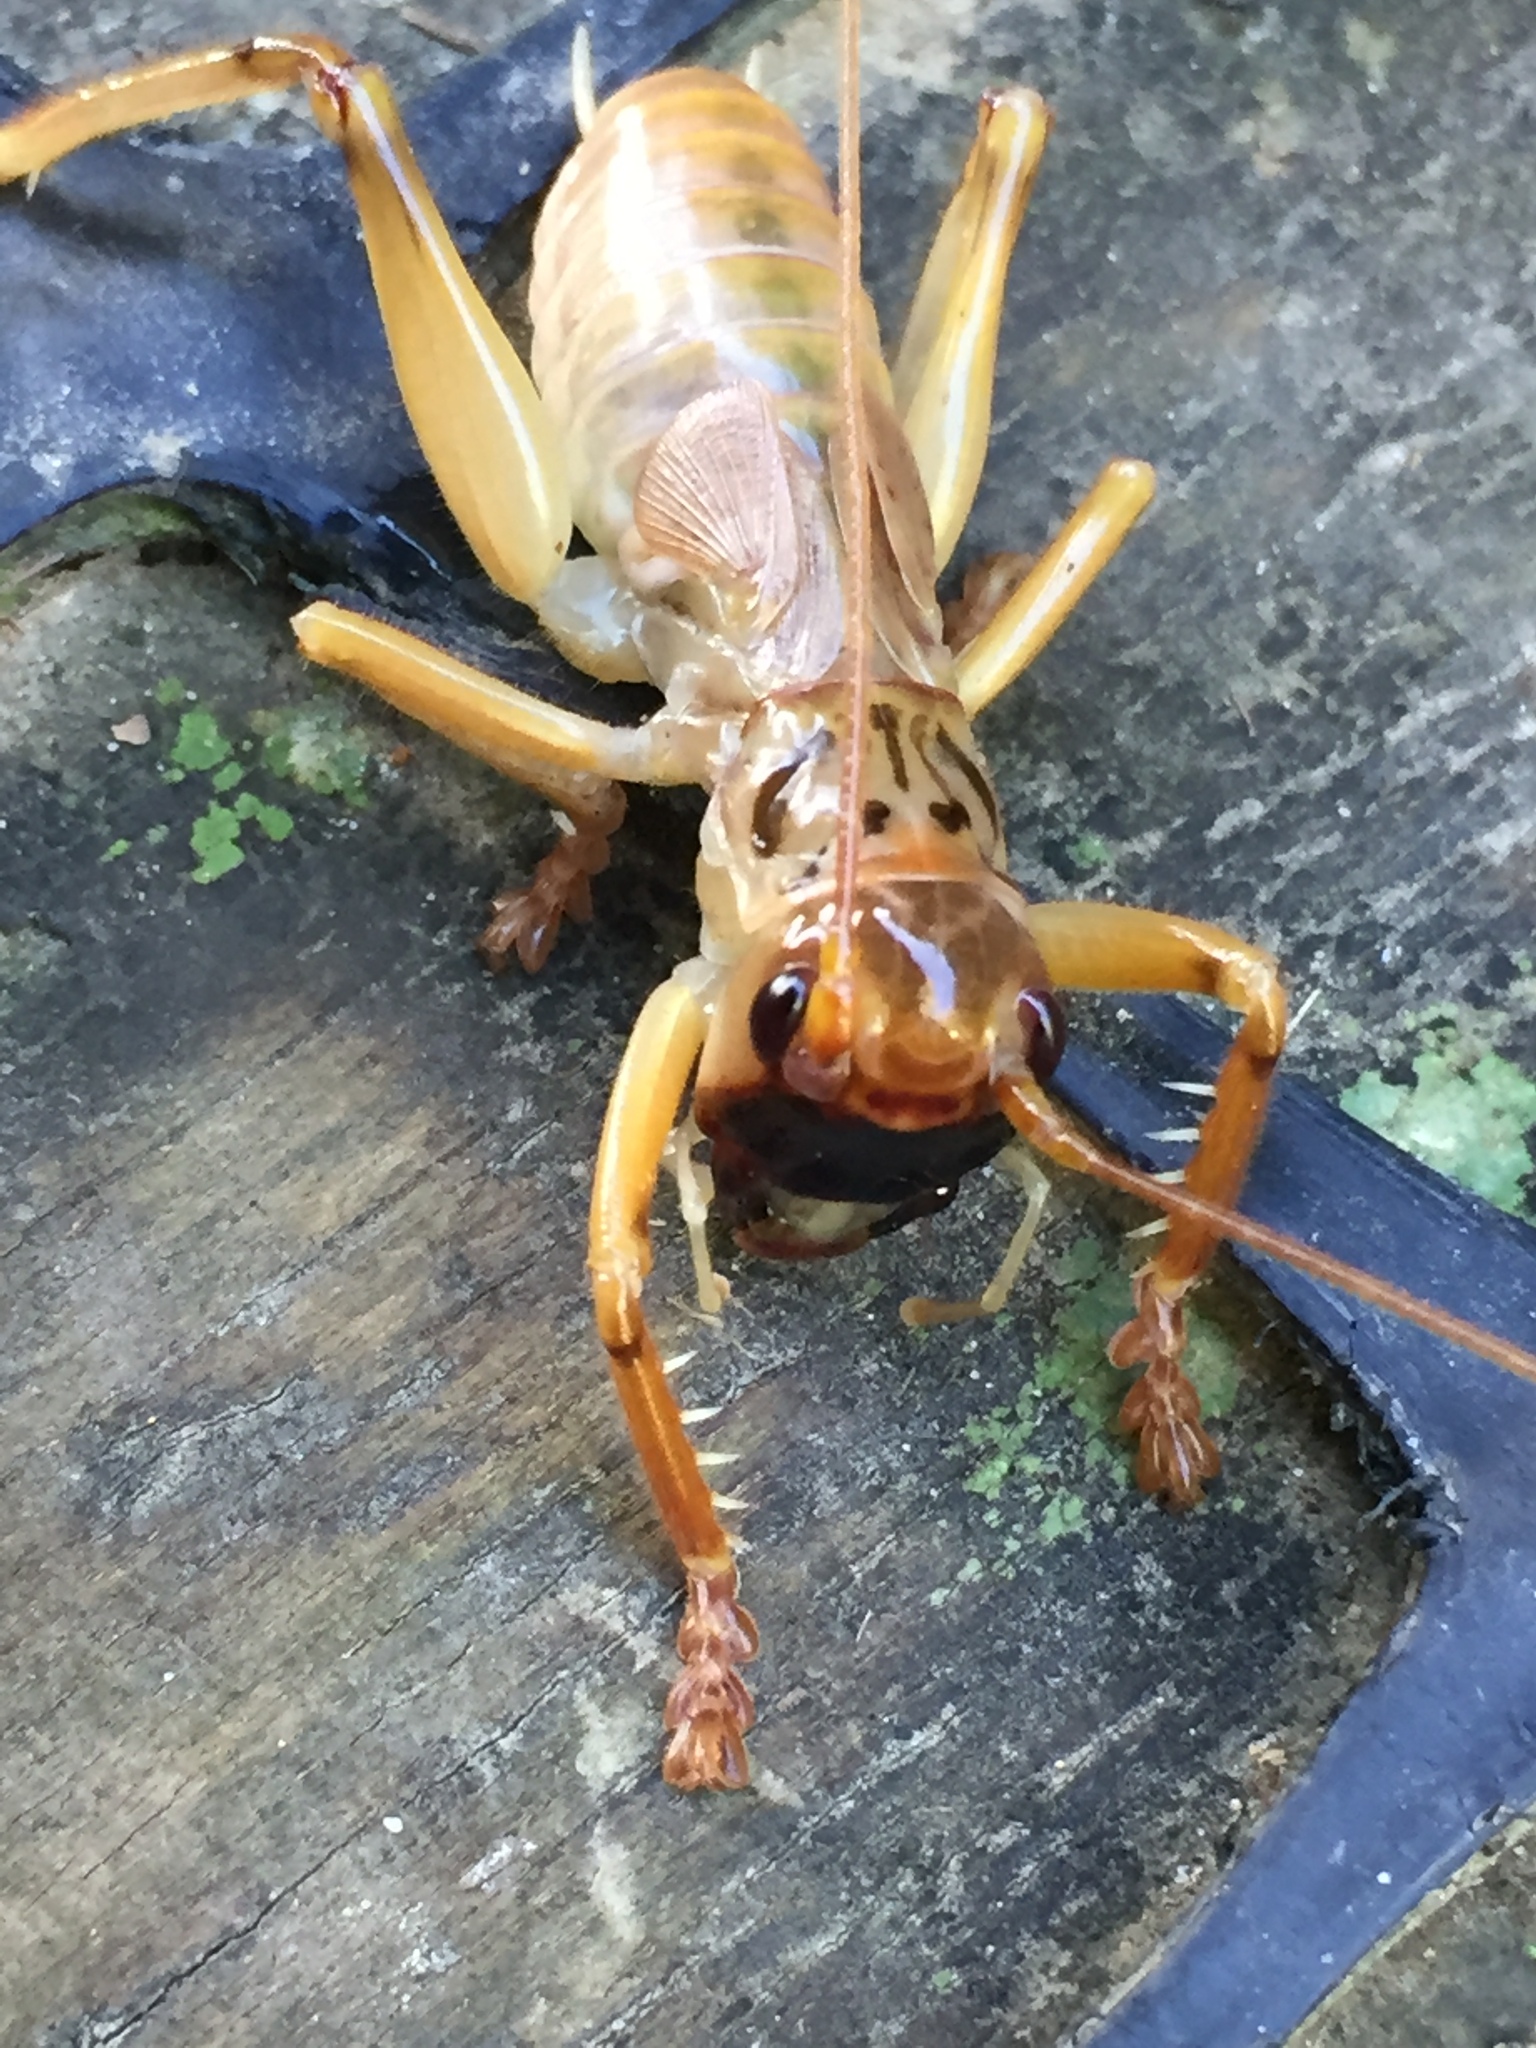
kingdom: Animalia
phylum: Arthropoda
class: Insecta
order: Orthoptera
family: Gryllacrididae
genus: Pterapotrechus
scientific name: Pterapotrechus
